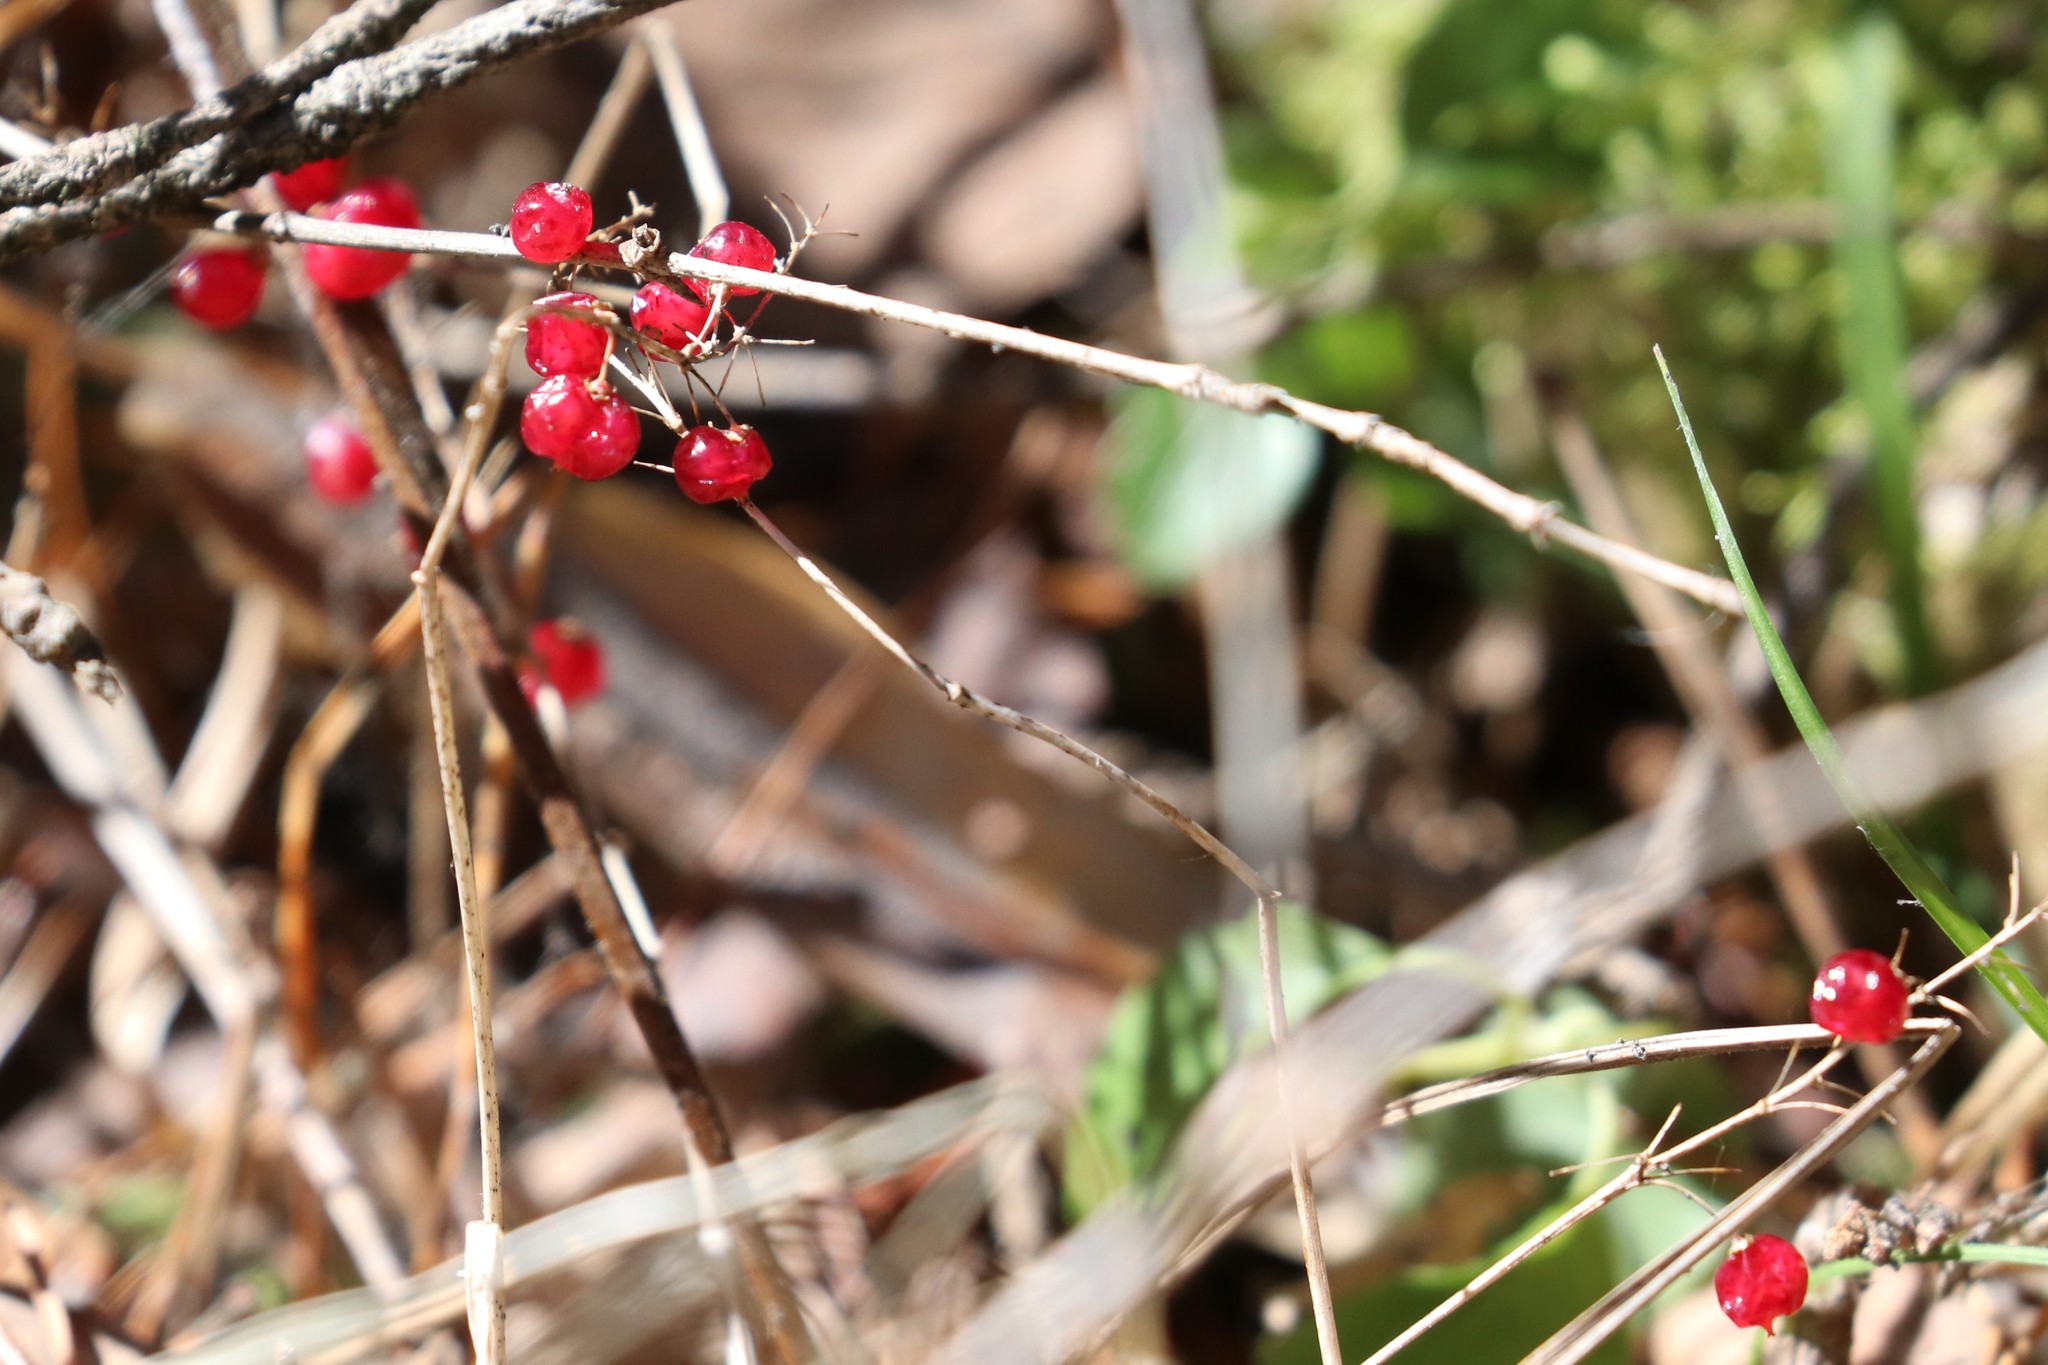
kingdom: Plantae
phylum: Tracheophyta
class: Liliopsida
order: Asparagales
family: Asparagaceae
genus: Maianthemum
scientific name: Maianthemum bifolium
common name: May lily
